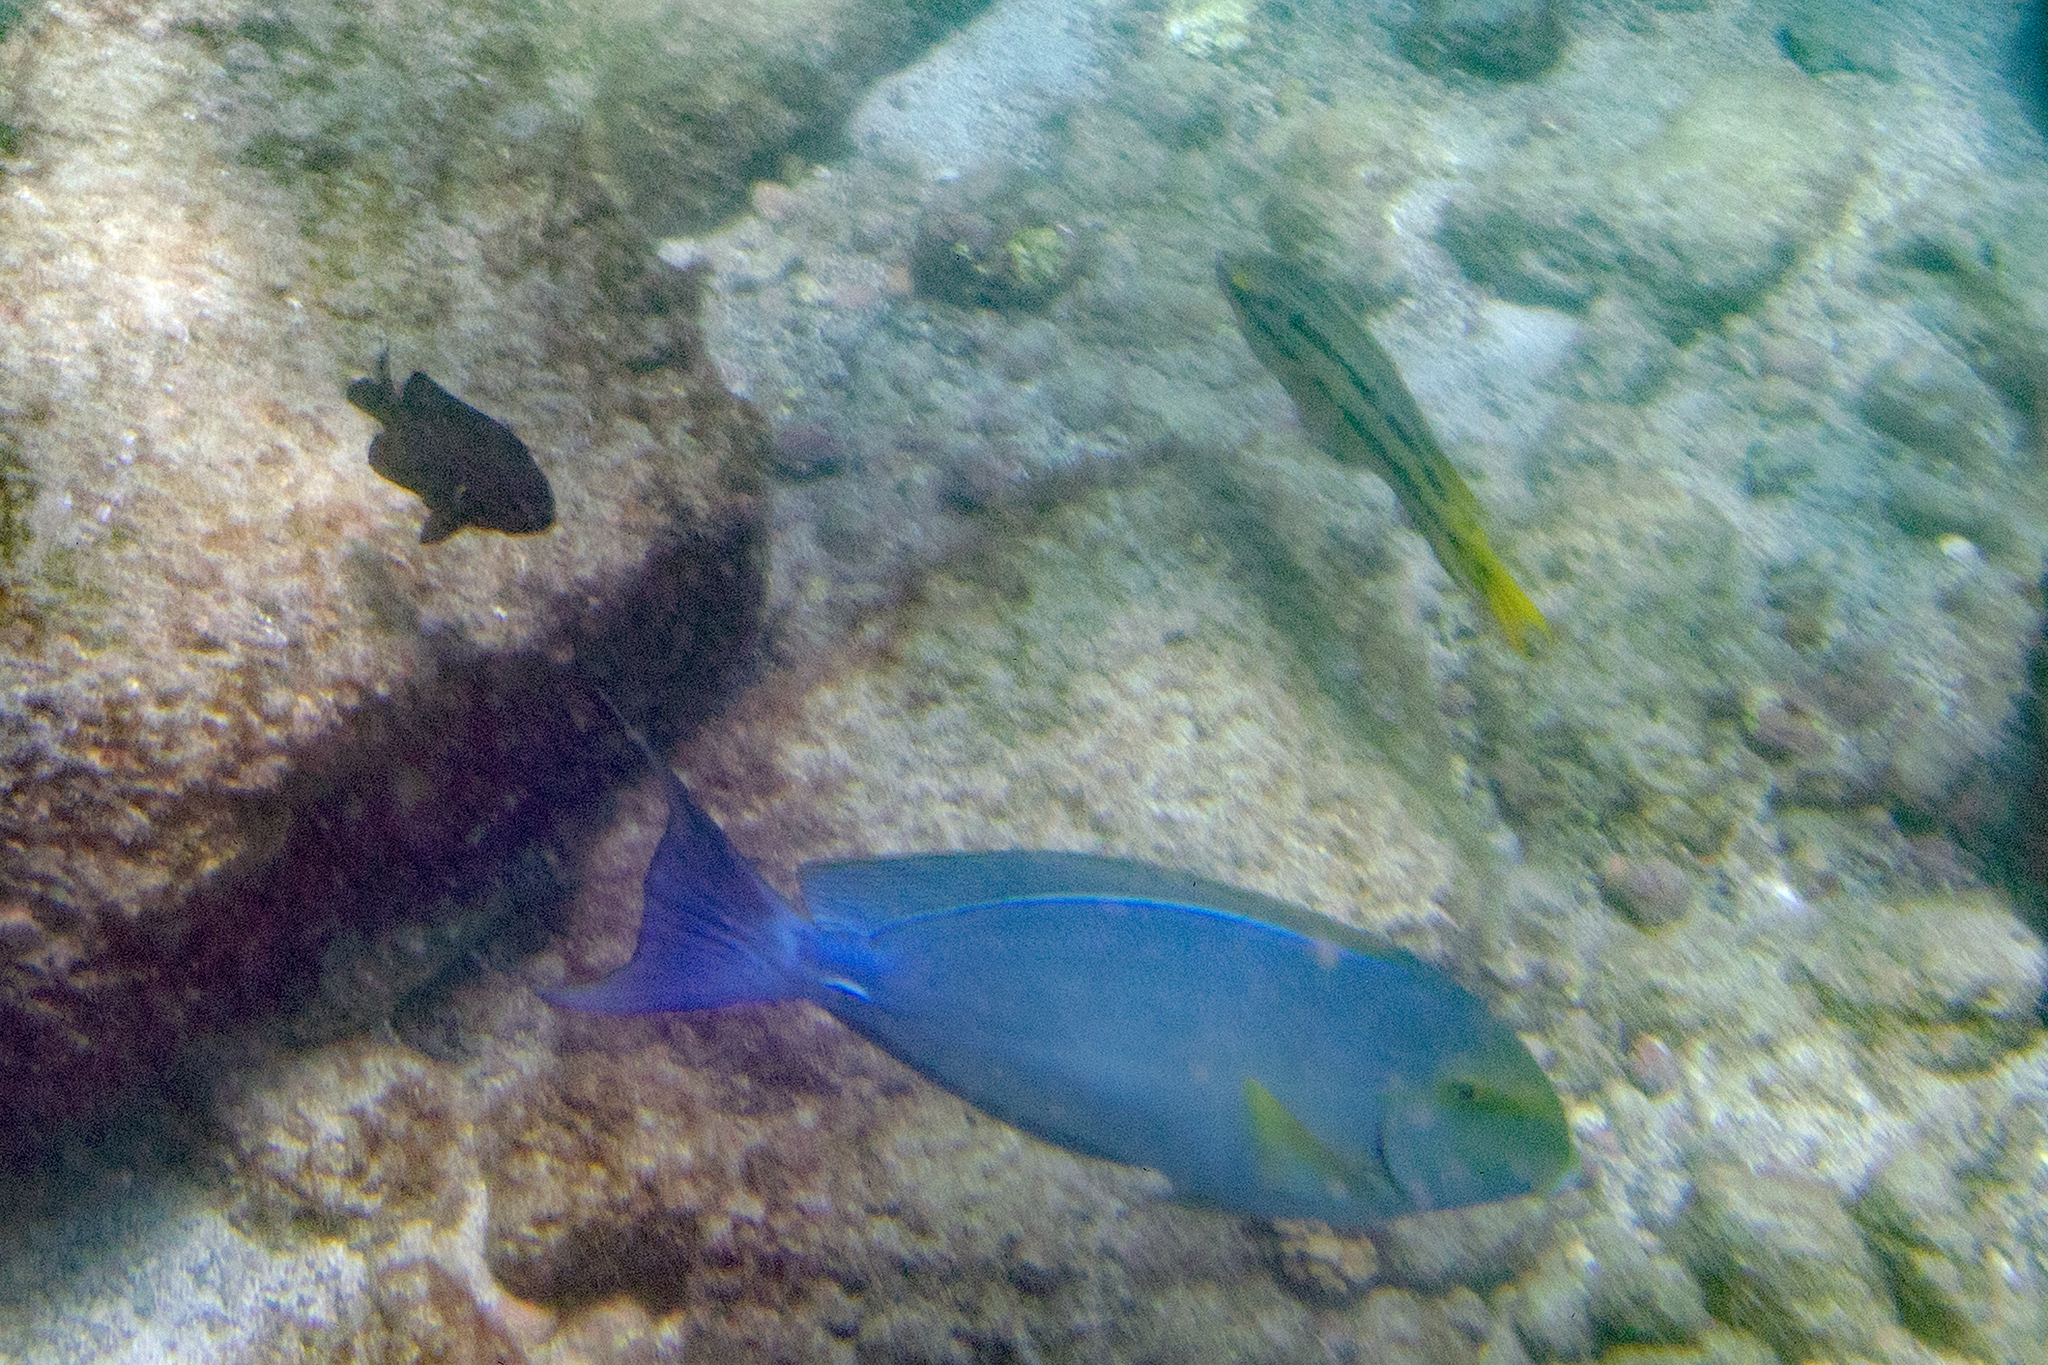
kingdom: Animalia
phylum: Chordata
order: Perciformes
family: Labridae
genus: Bodianus
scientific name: Bodianus diplotaenia
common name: Mexican hogfish
